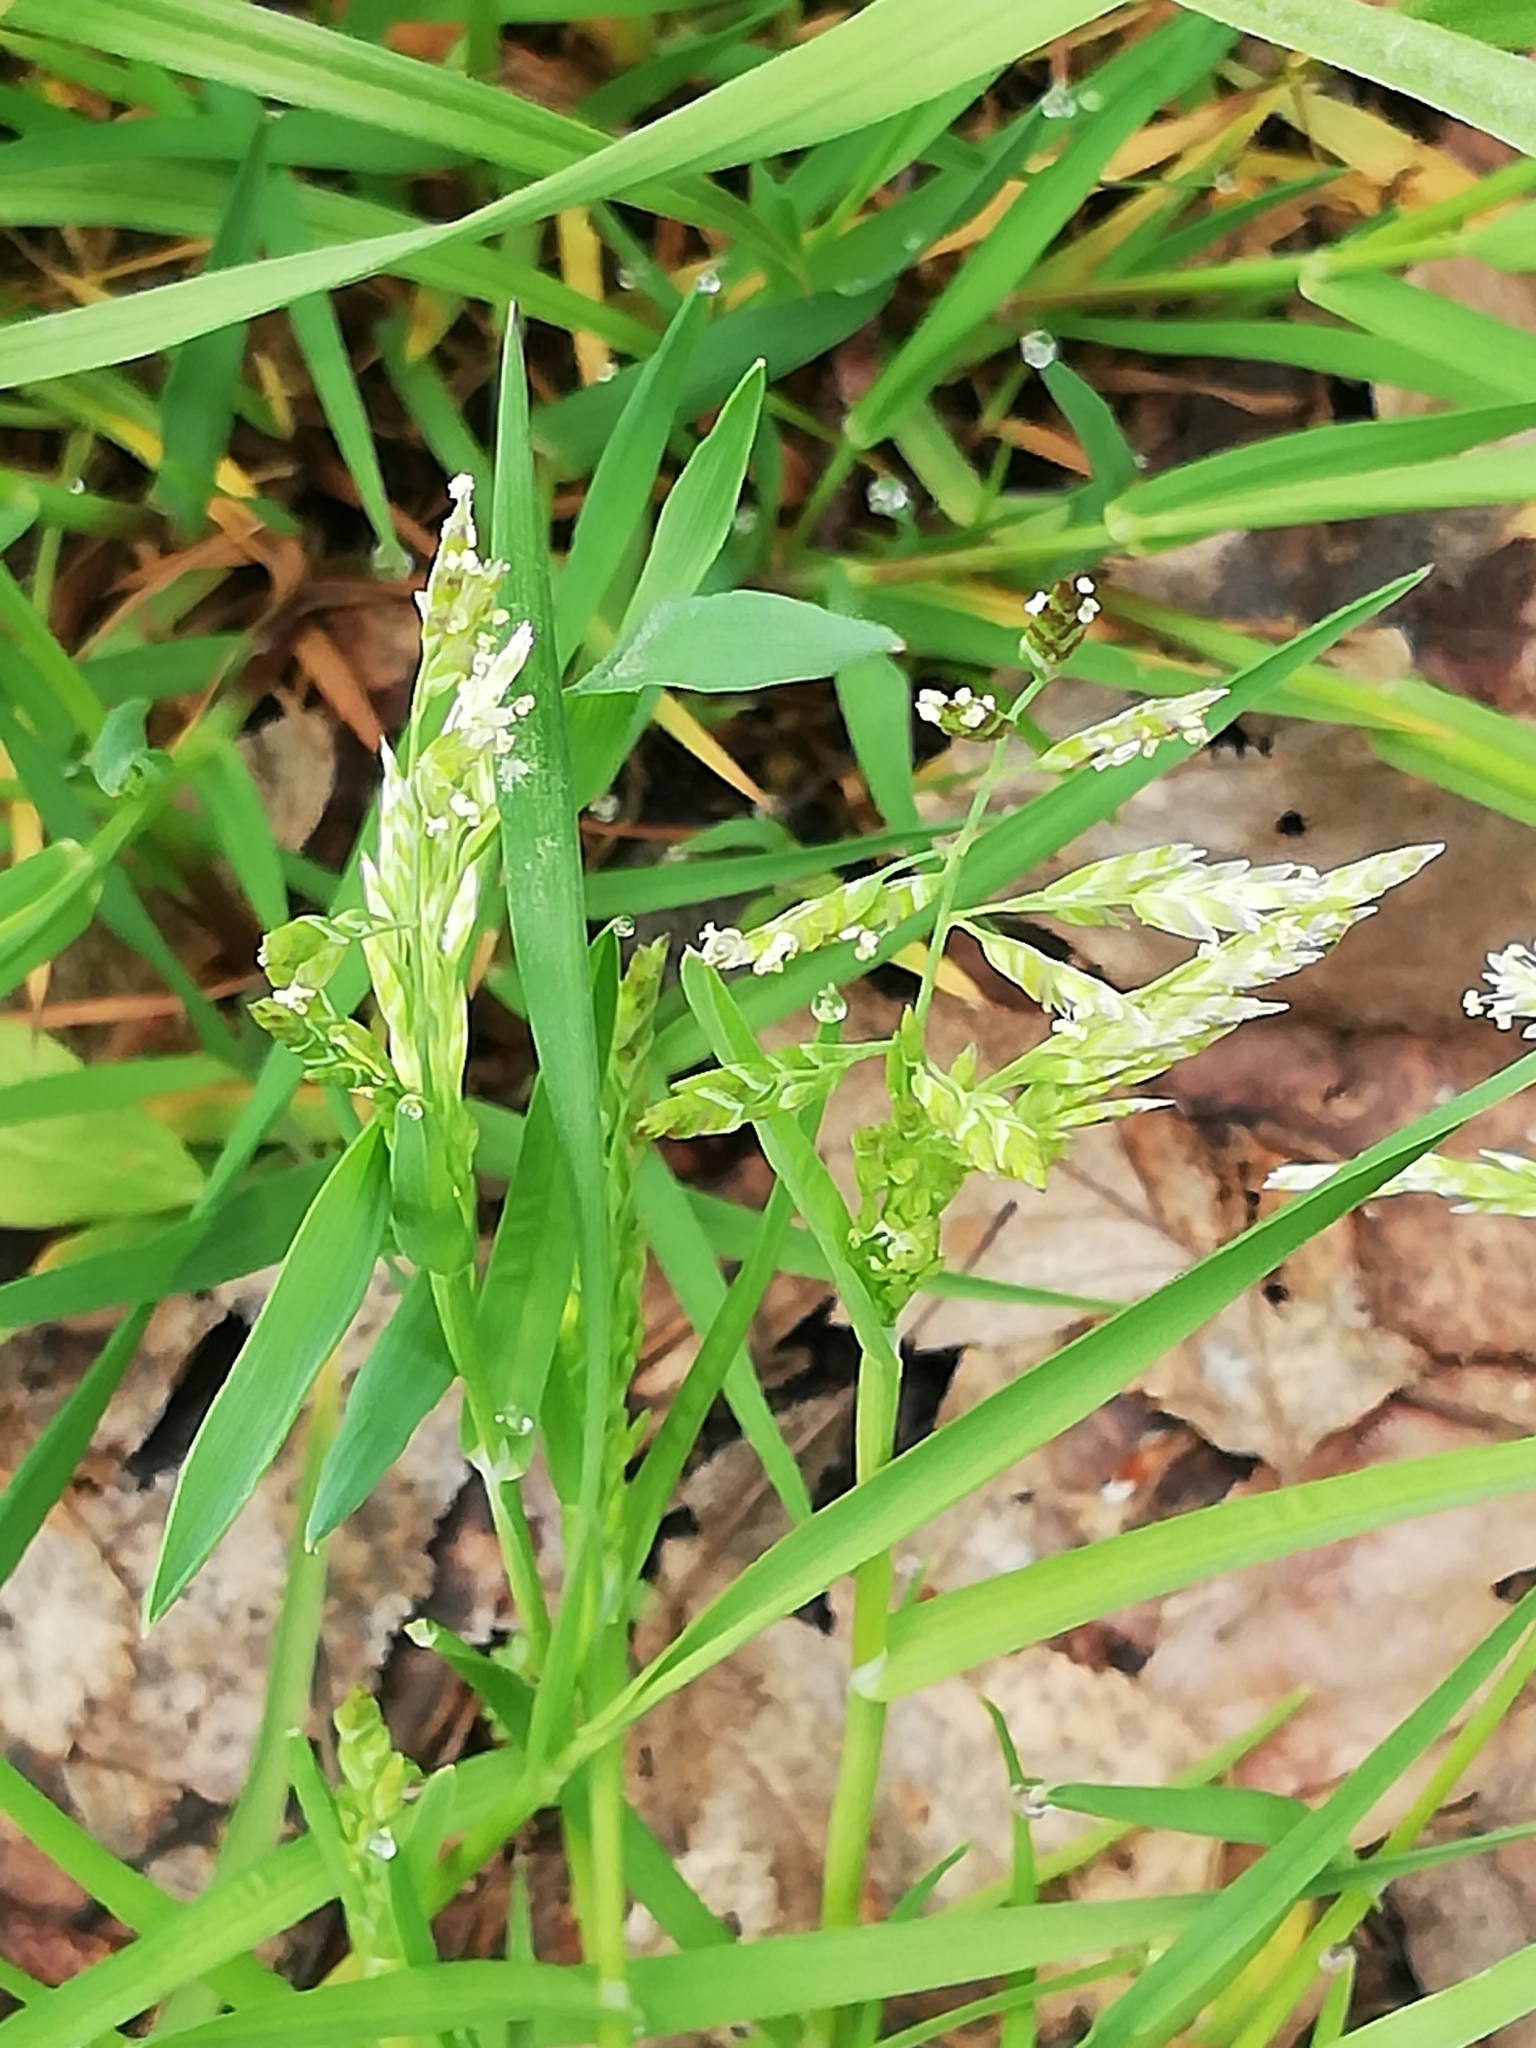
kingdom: Plantae
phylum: Tracheophyta
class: Liliopsida
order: Poales
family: Poaceae
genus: Poa
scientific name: Poa annua
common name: Annual bluegrass
